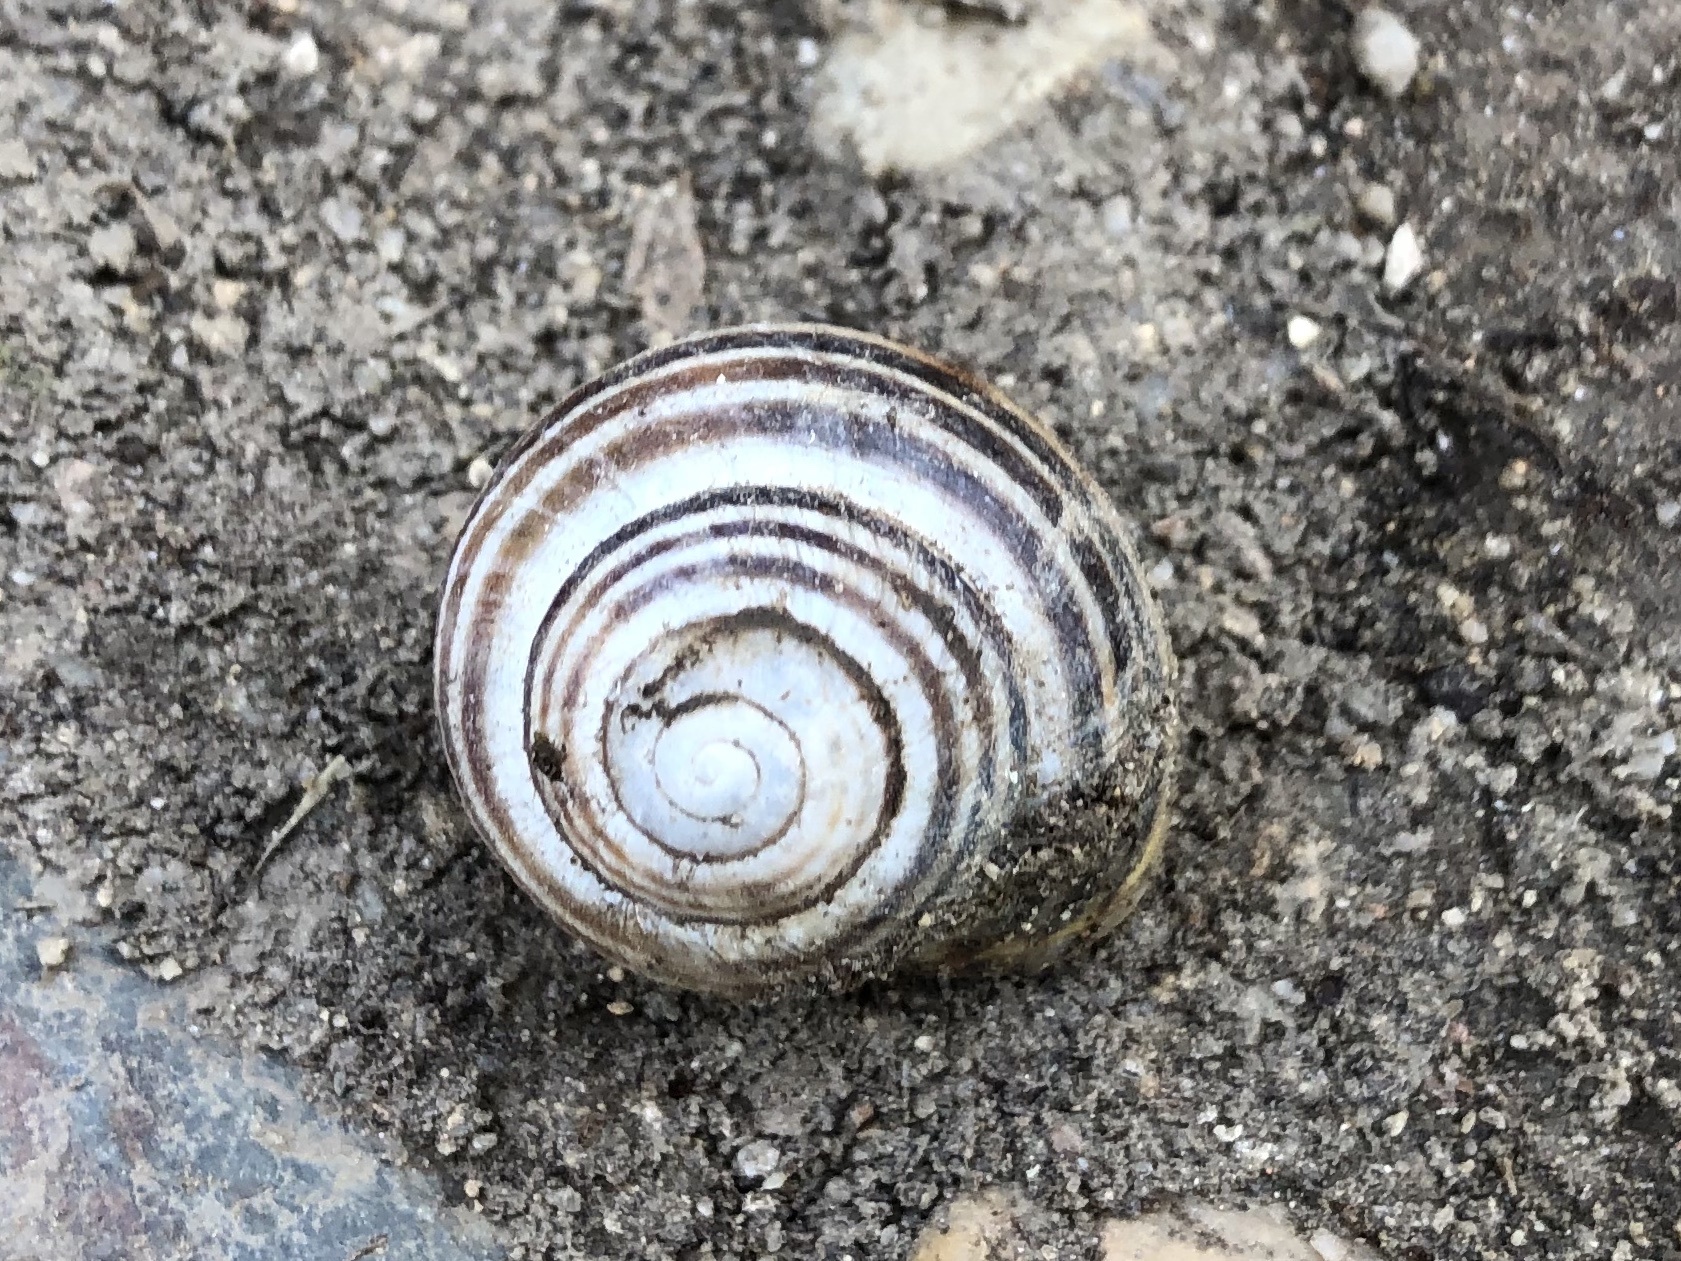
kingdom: Animalia
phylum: Mollusca
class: Gastropoda
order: Stylommatophora
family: Helicidae
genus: Cepaea
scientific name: Cepaea hortensis
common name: White-lip gardensnail
